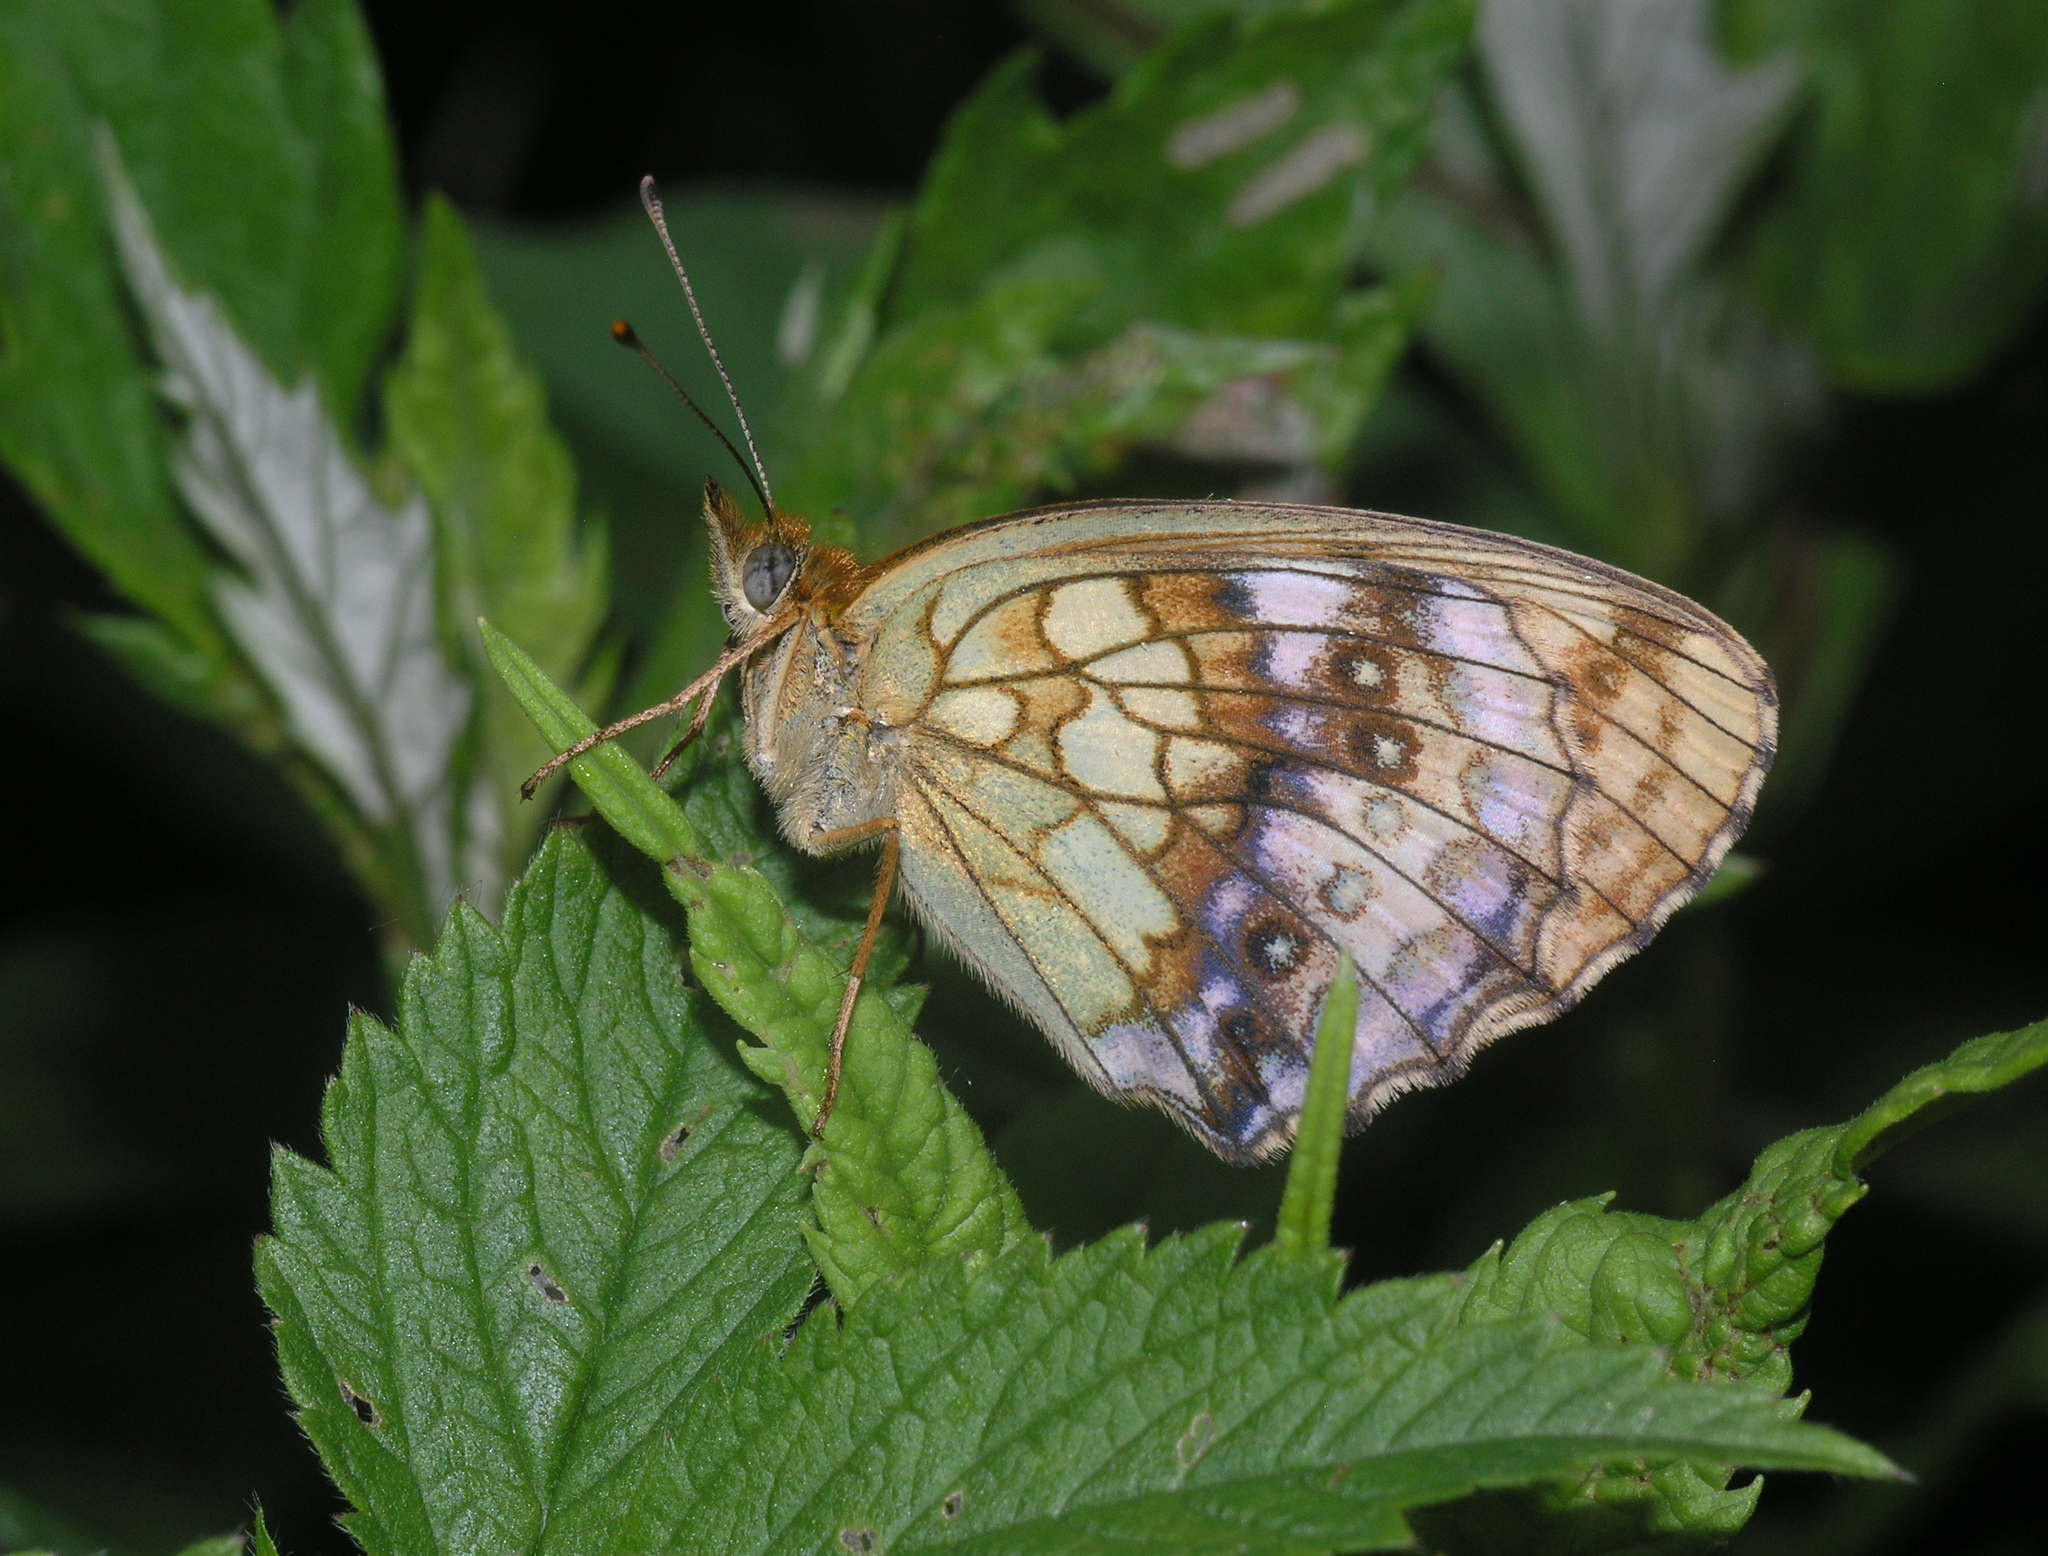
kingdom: Animalia
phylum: Arthropoda
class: Insecta
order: Lepidoptera
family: Nymphalidae
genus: Brenthis
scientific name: Brenthis ino
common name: Lesser marbled fritillary
